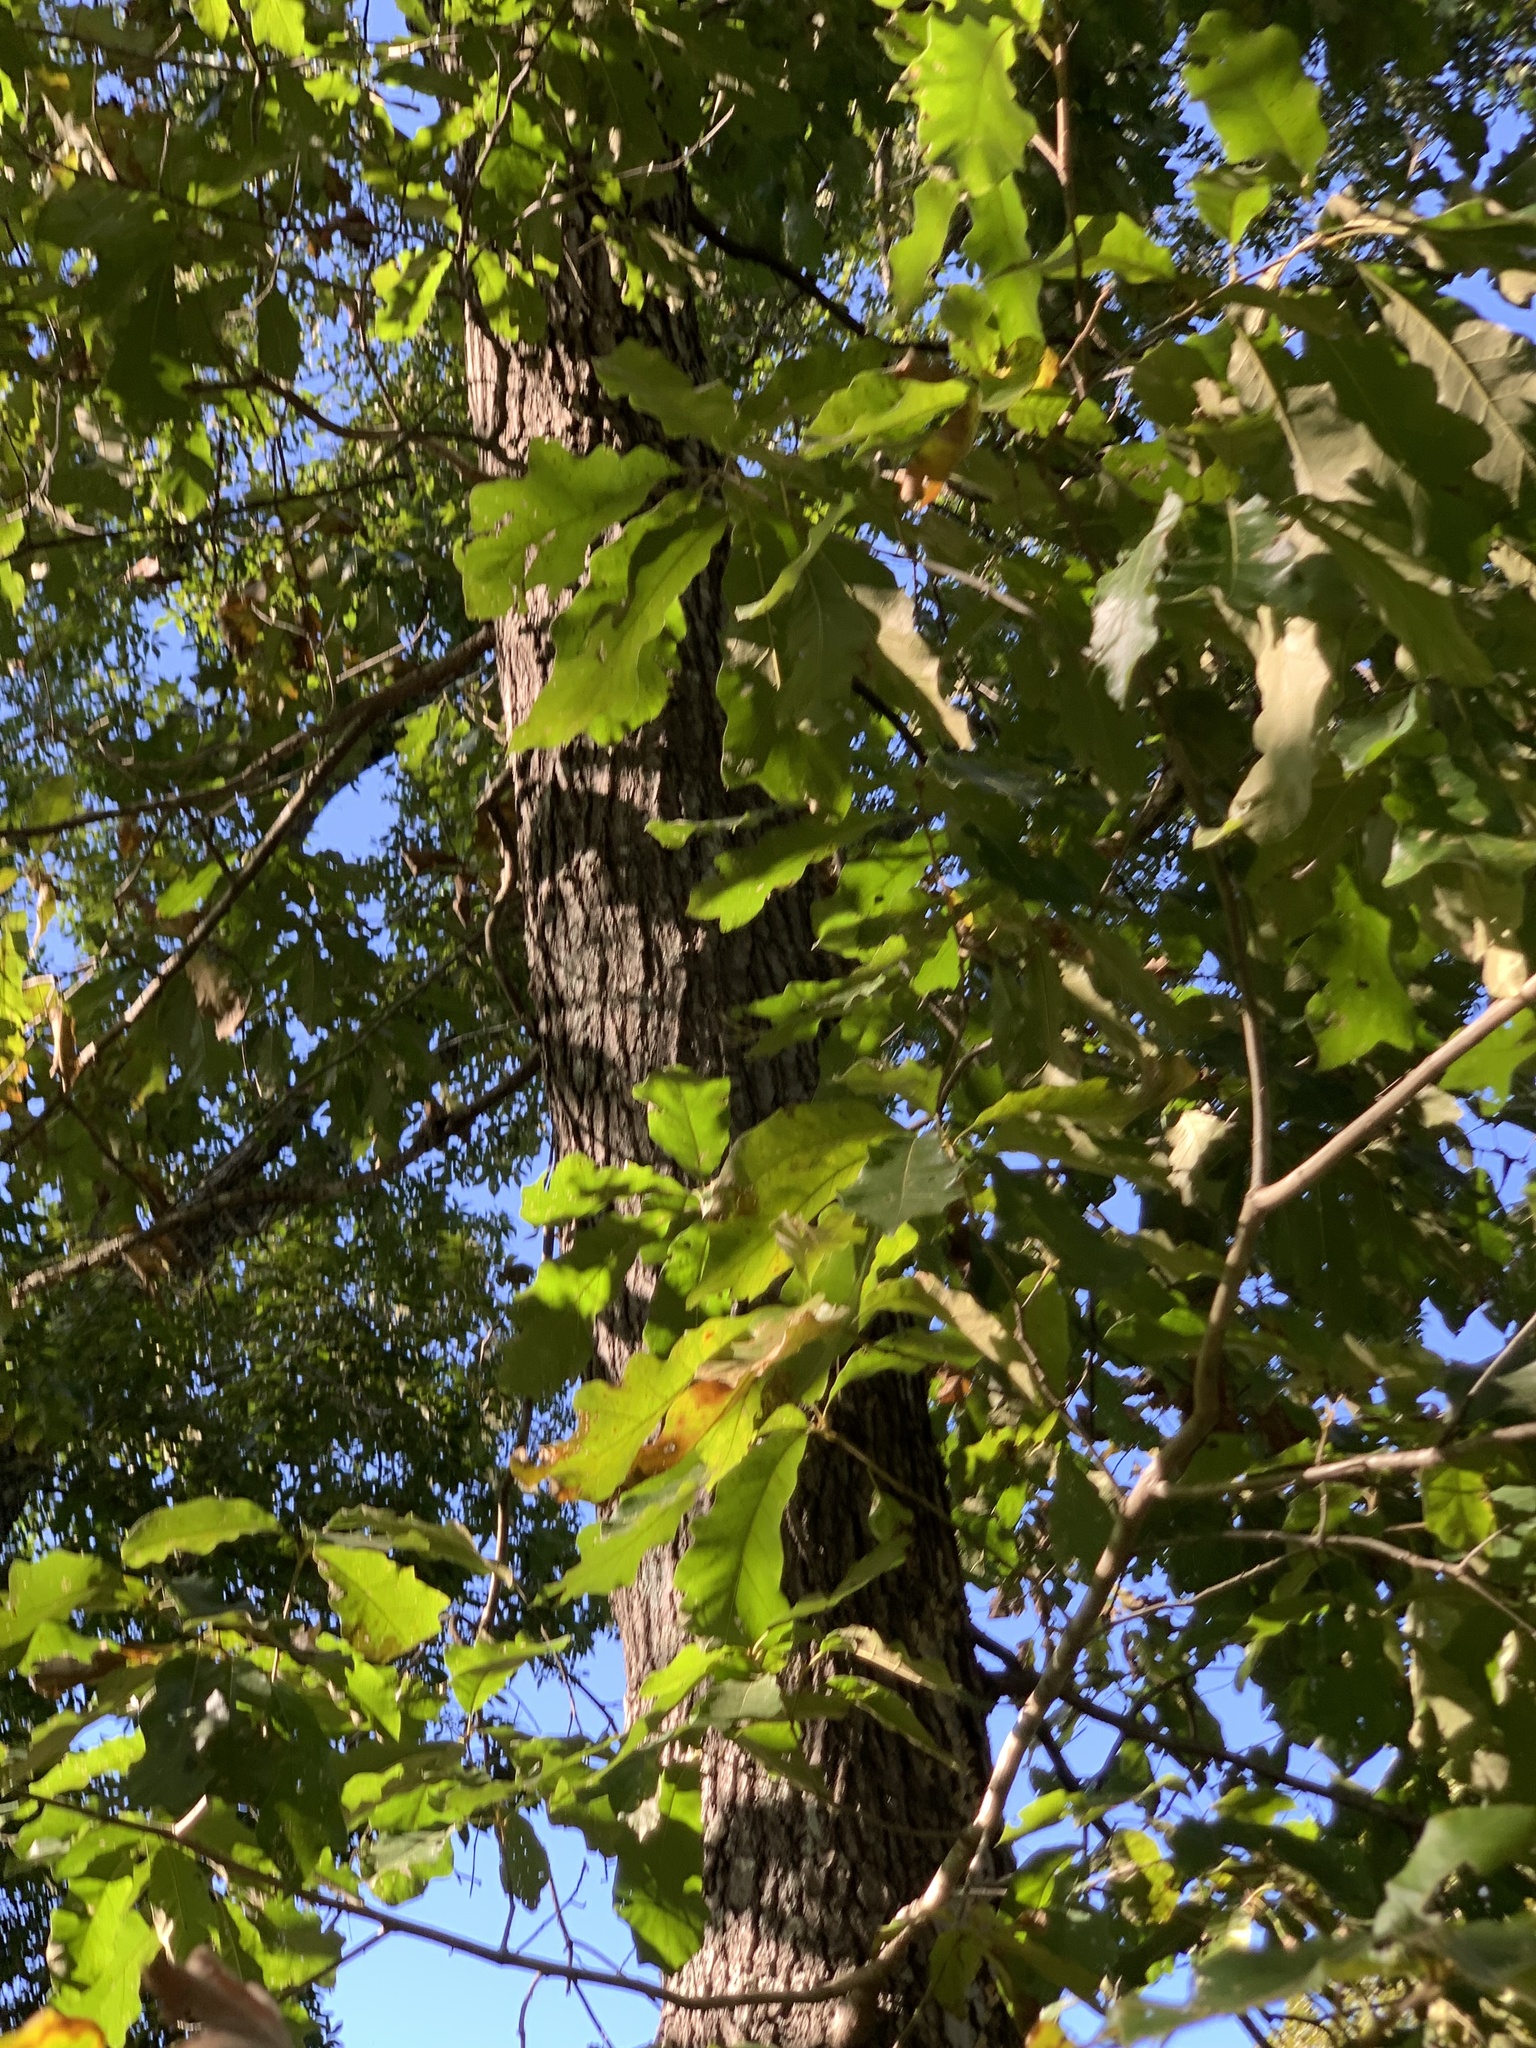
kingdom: Plantae
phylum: Tracheophyta
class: Magnoliopsida
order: Fagales
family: Fagaceae
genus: Quercus
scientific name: Quercus leana
